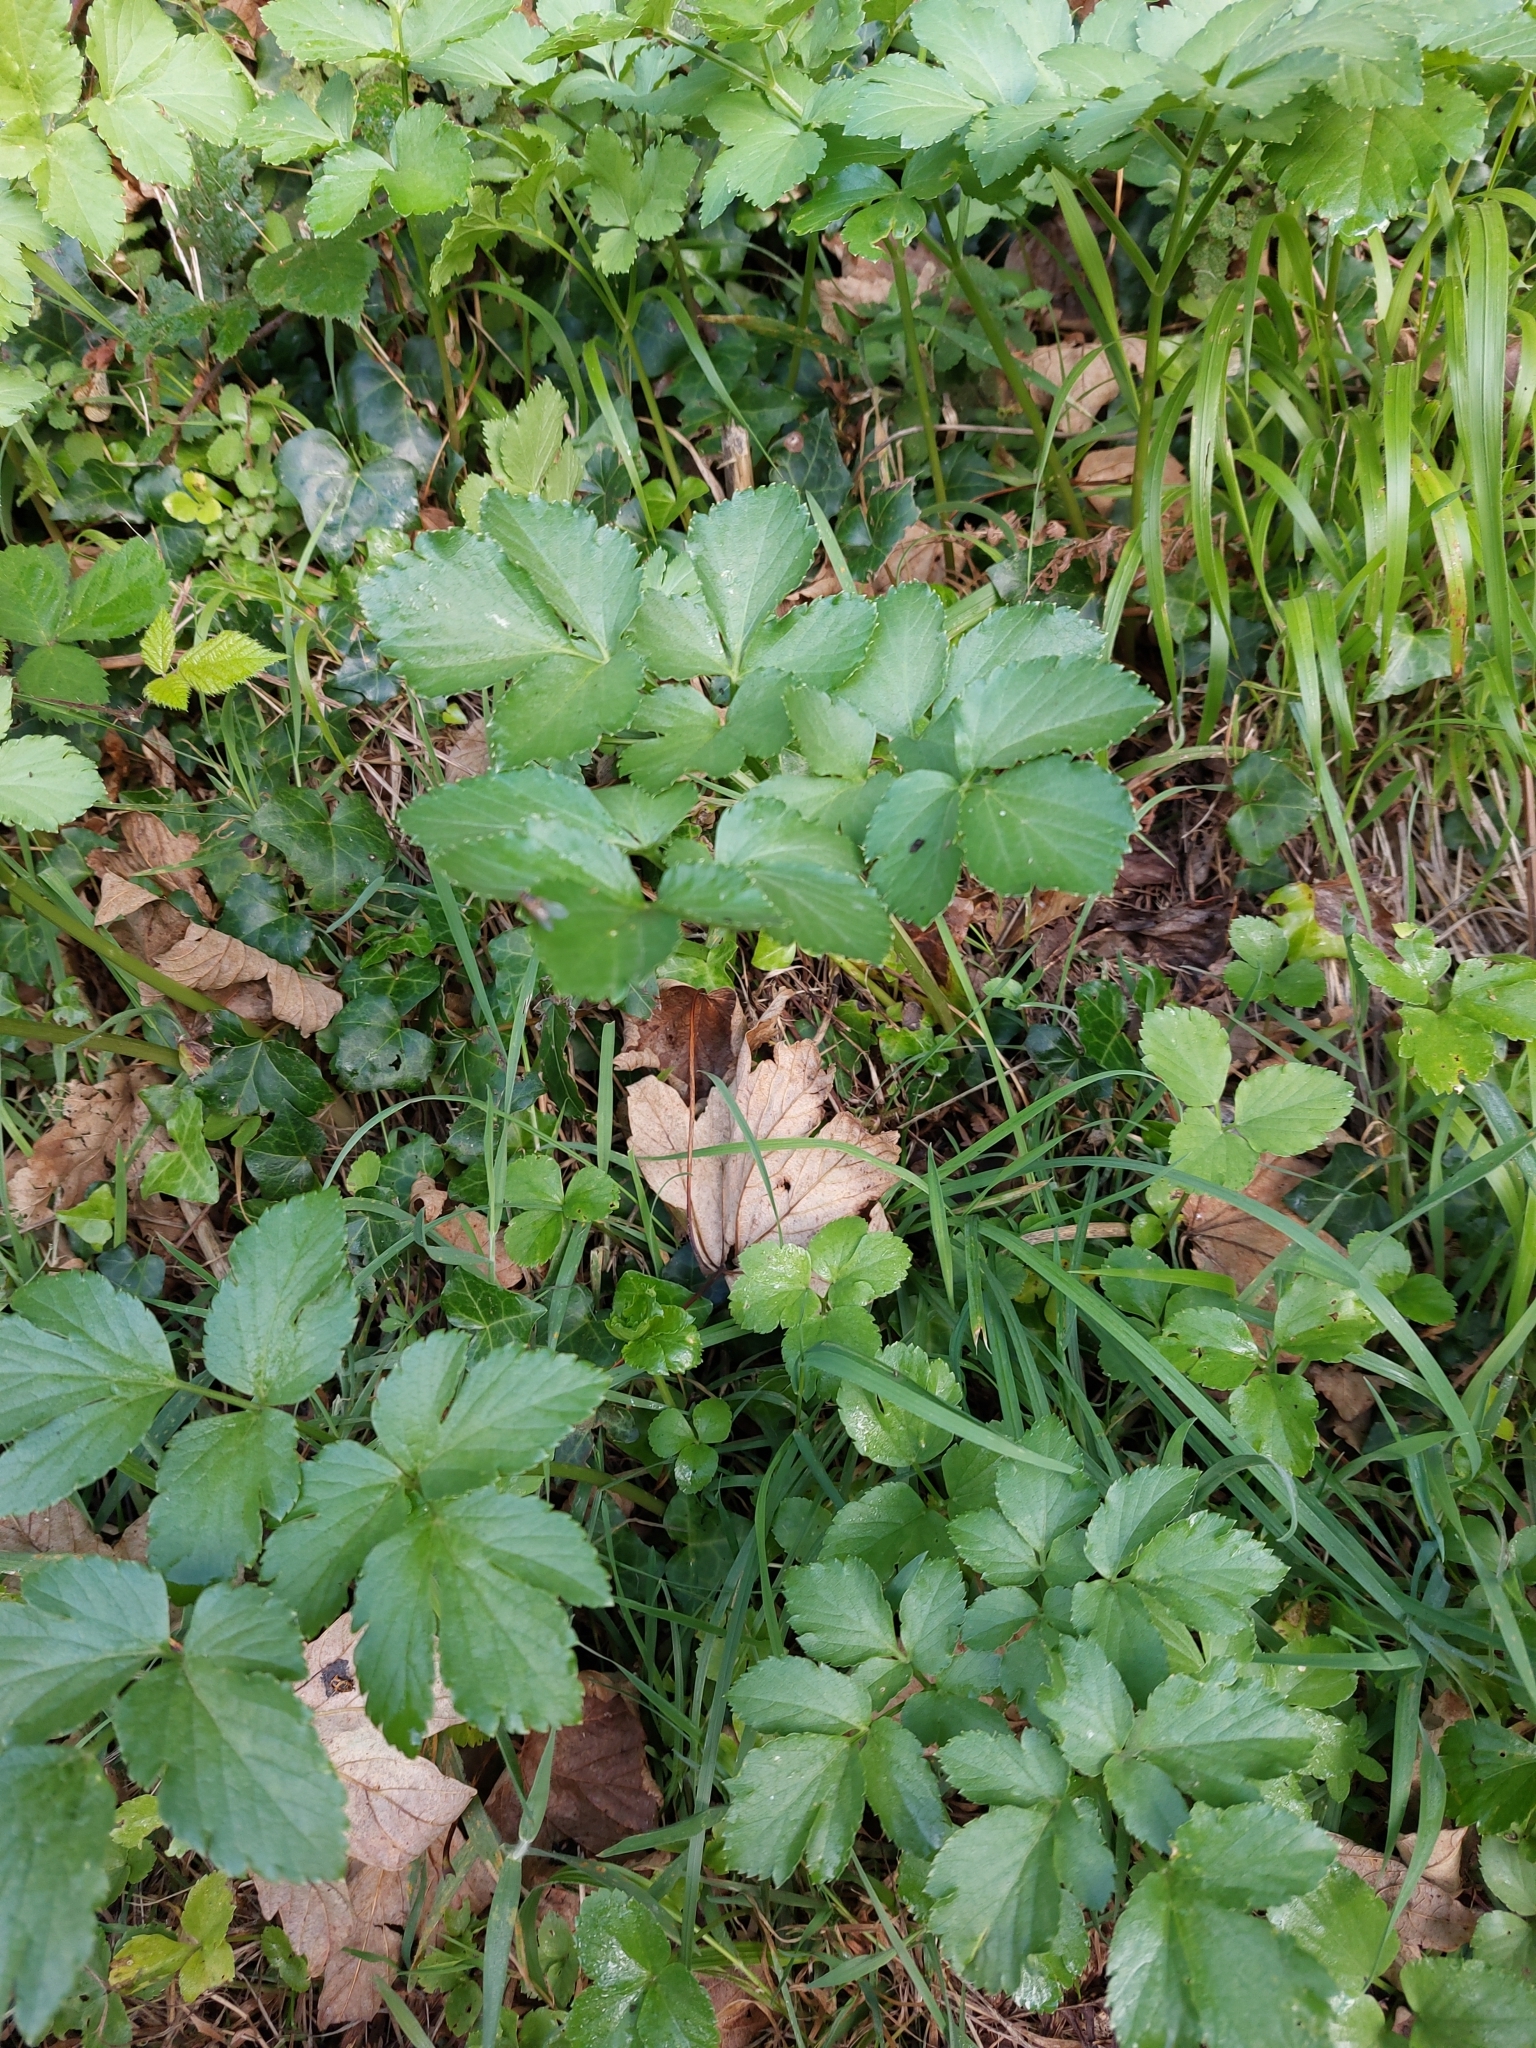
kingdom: Plantae
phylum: Tracheophyta
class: Magnoliopsida
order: Apiales
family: Apiaceae
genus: Smyrnium
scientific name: Smyrnium olusatrum
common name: Alexanders
